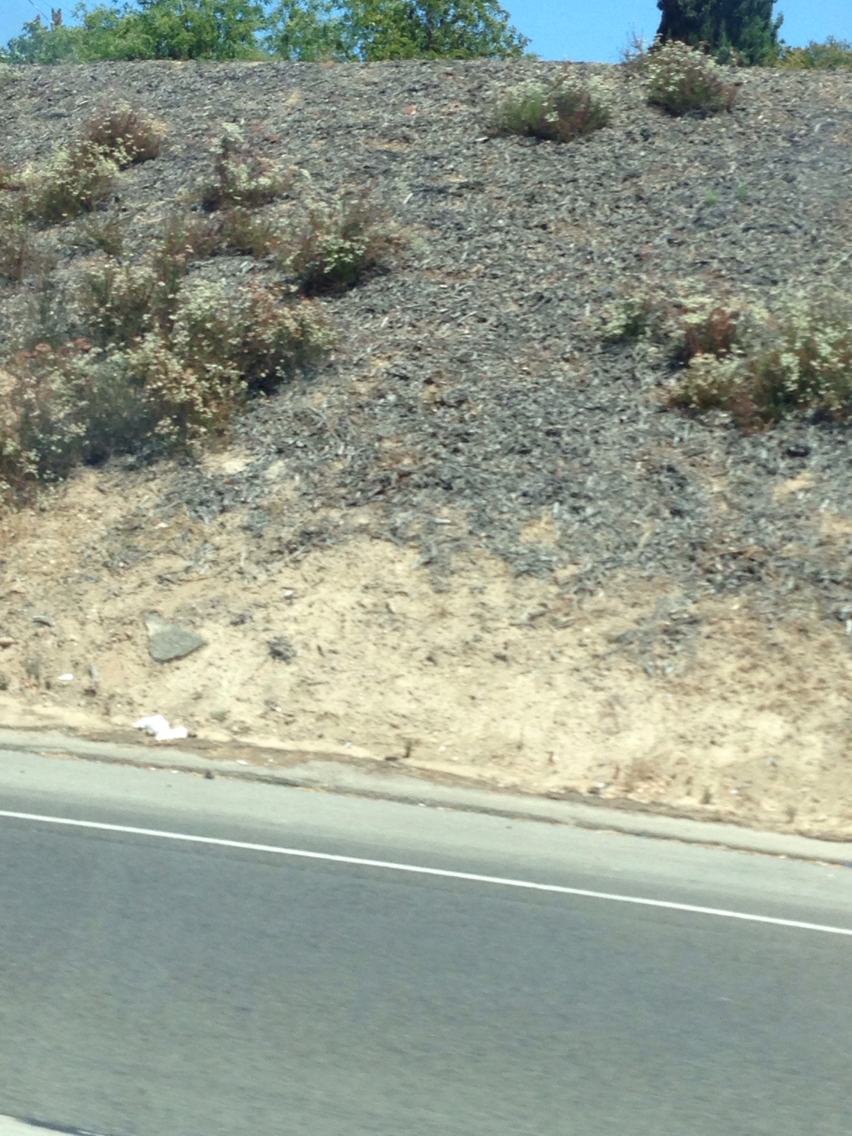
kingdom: Plantae
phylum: Tracheophyta
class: Magnoliopsida
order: Caryophyllales
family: Polygonaceae
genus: Eriogonum
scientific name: Eriogonum fasciculatum
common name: California wild buckwheat
